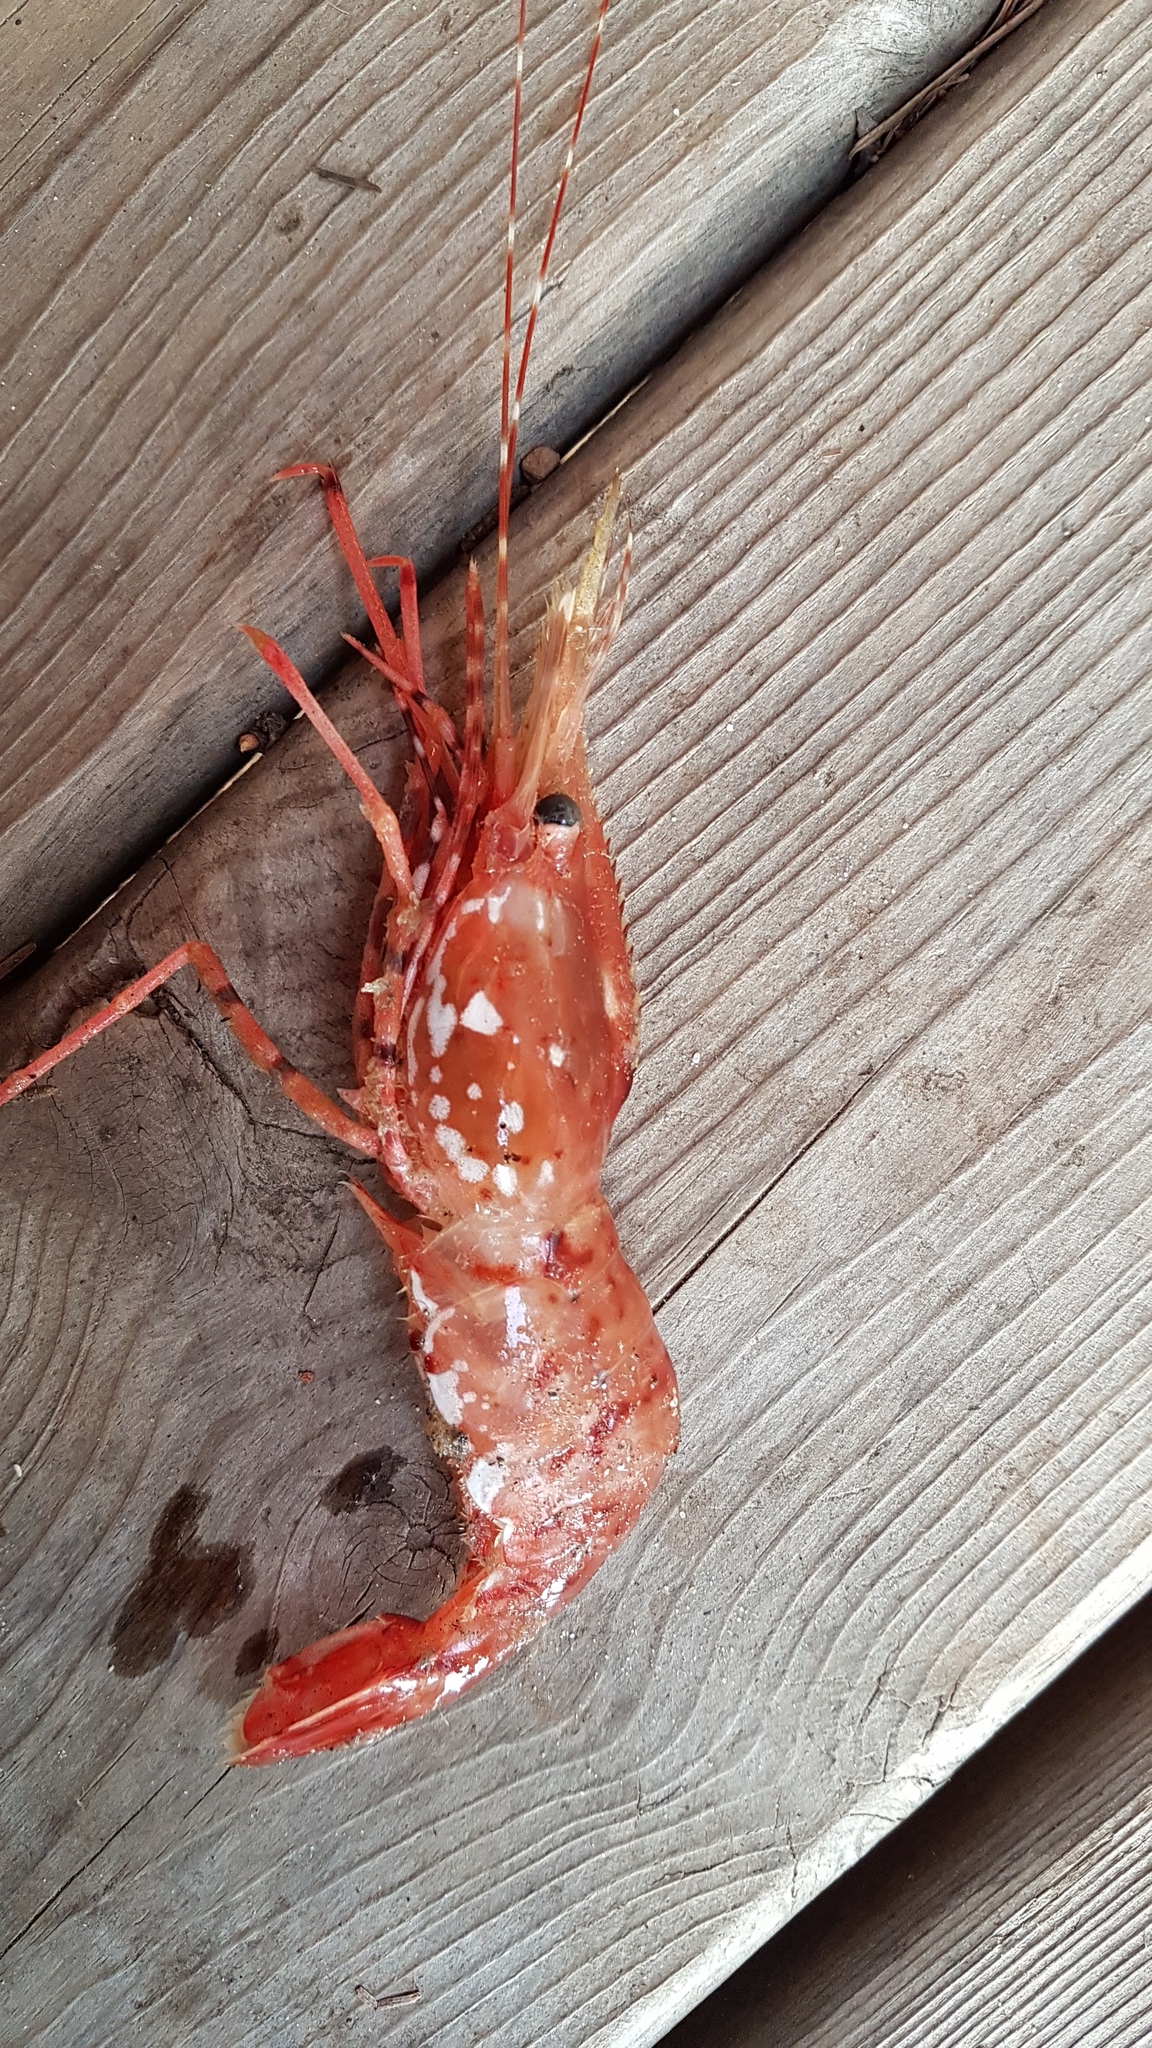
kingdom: Animalia
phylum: Arthropoda
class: Malacostraca
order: Decapoda
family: Pandalidae
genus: Pandalus
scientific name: Pandalus hypsinotus
